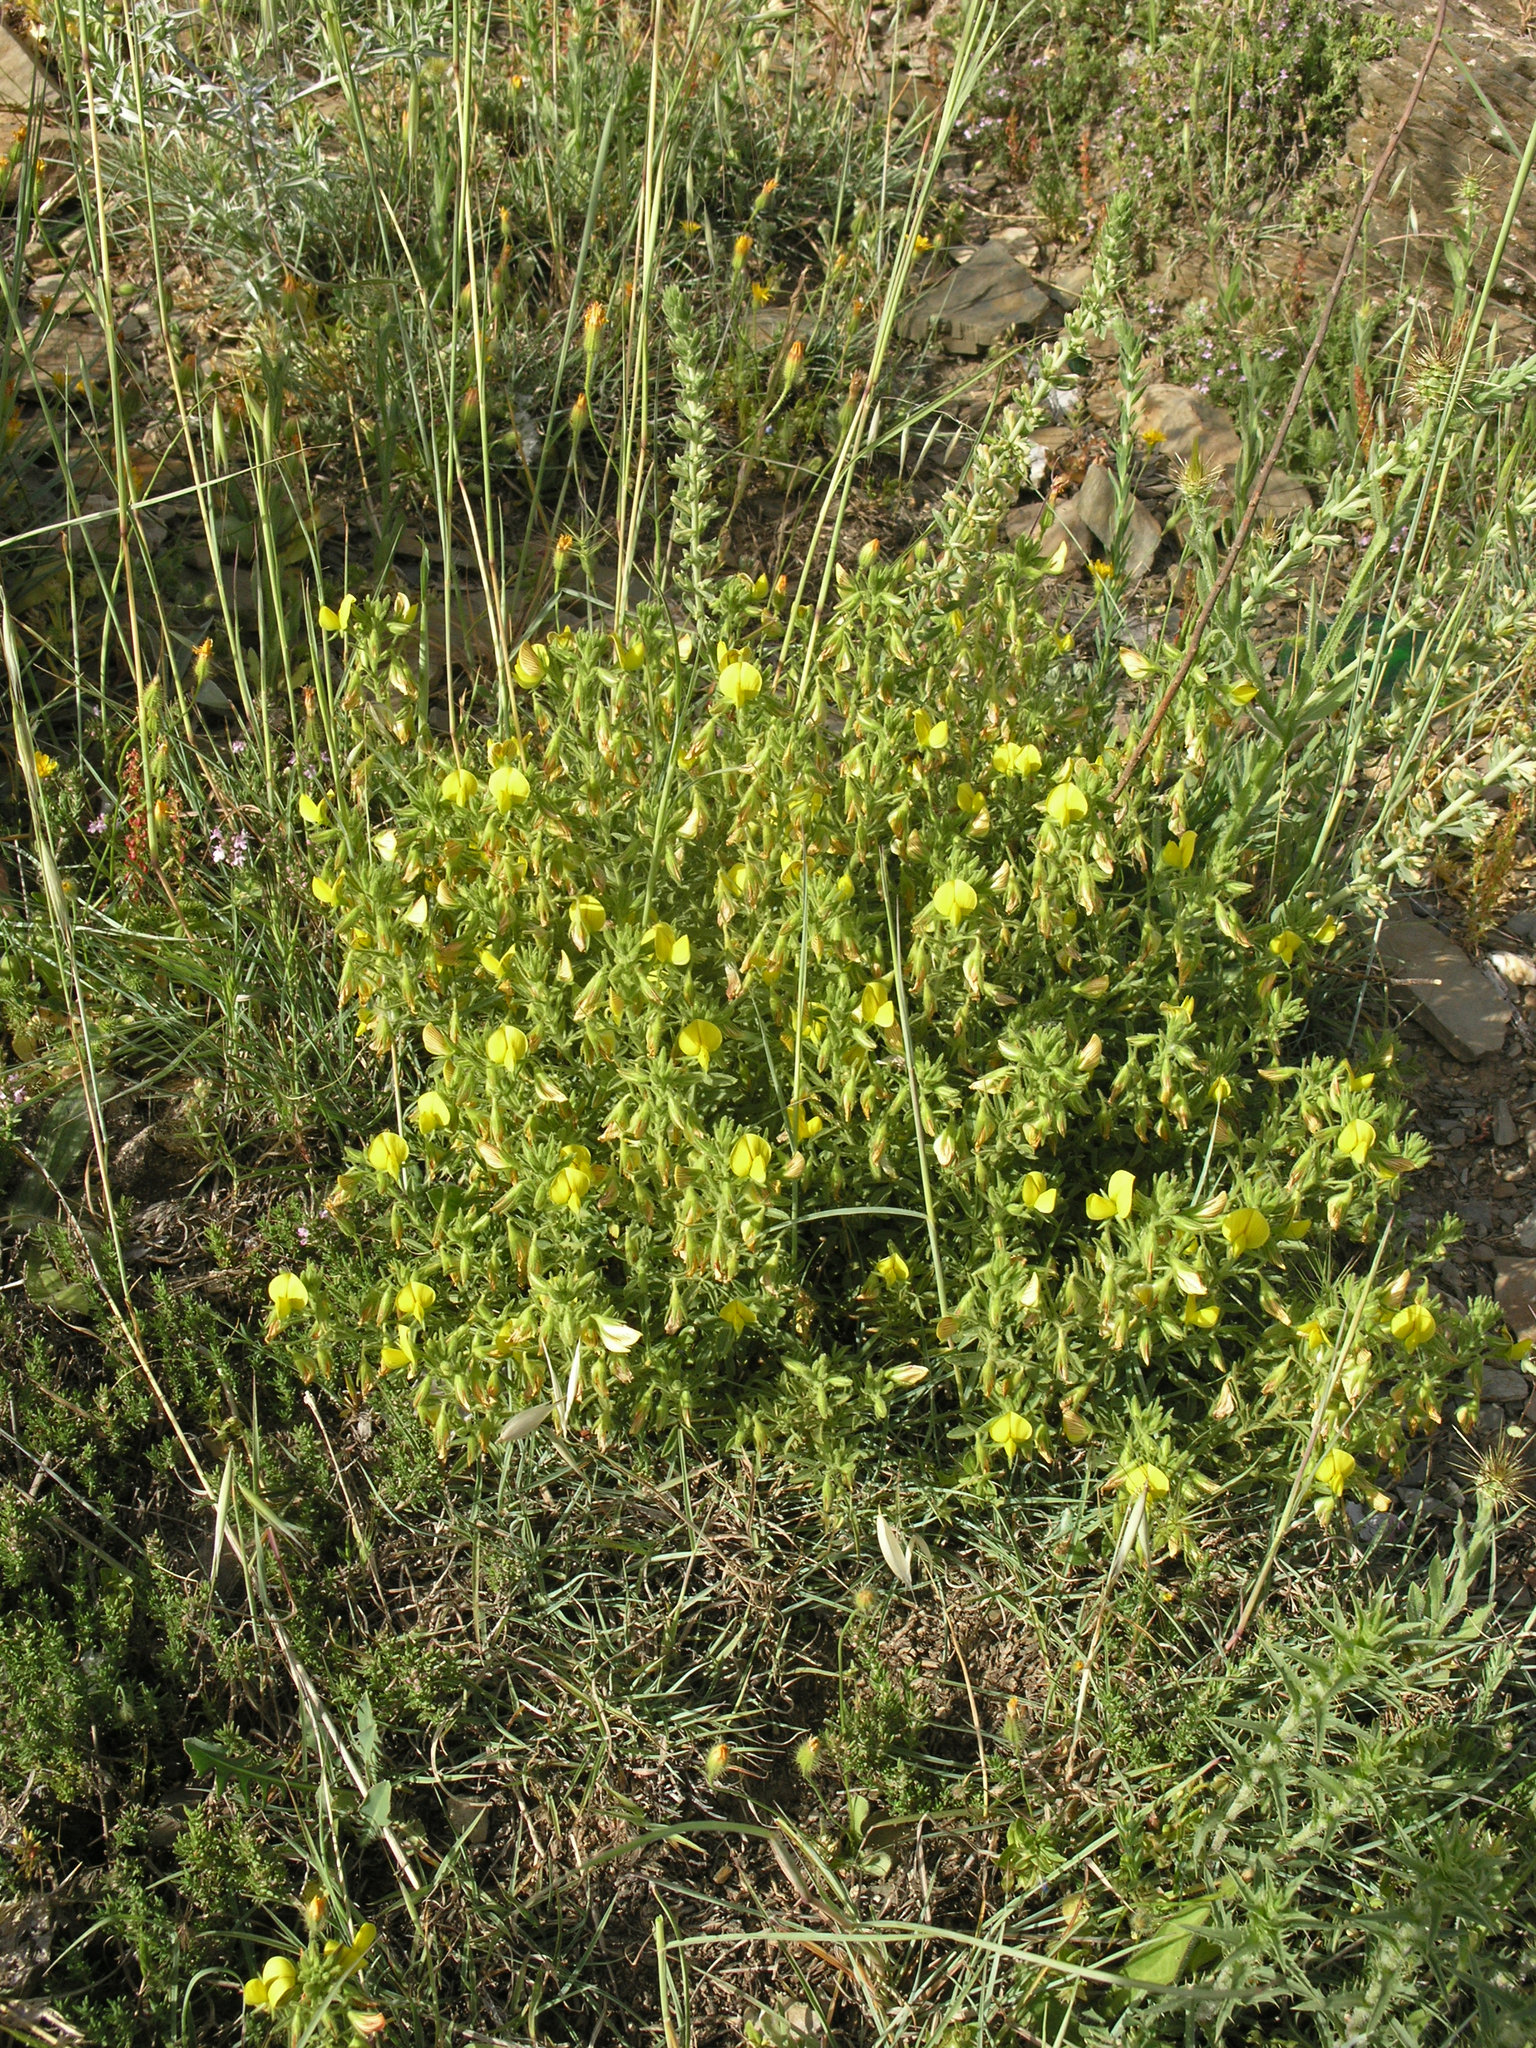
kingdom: Plantae
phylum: Tracheophyta
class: Magnoliopsida
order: Fabales
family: Fabaceae
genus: Ononis
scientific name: Ononis natrix
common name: Yellow restharrow
